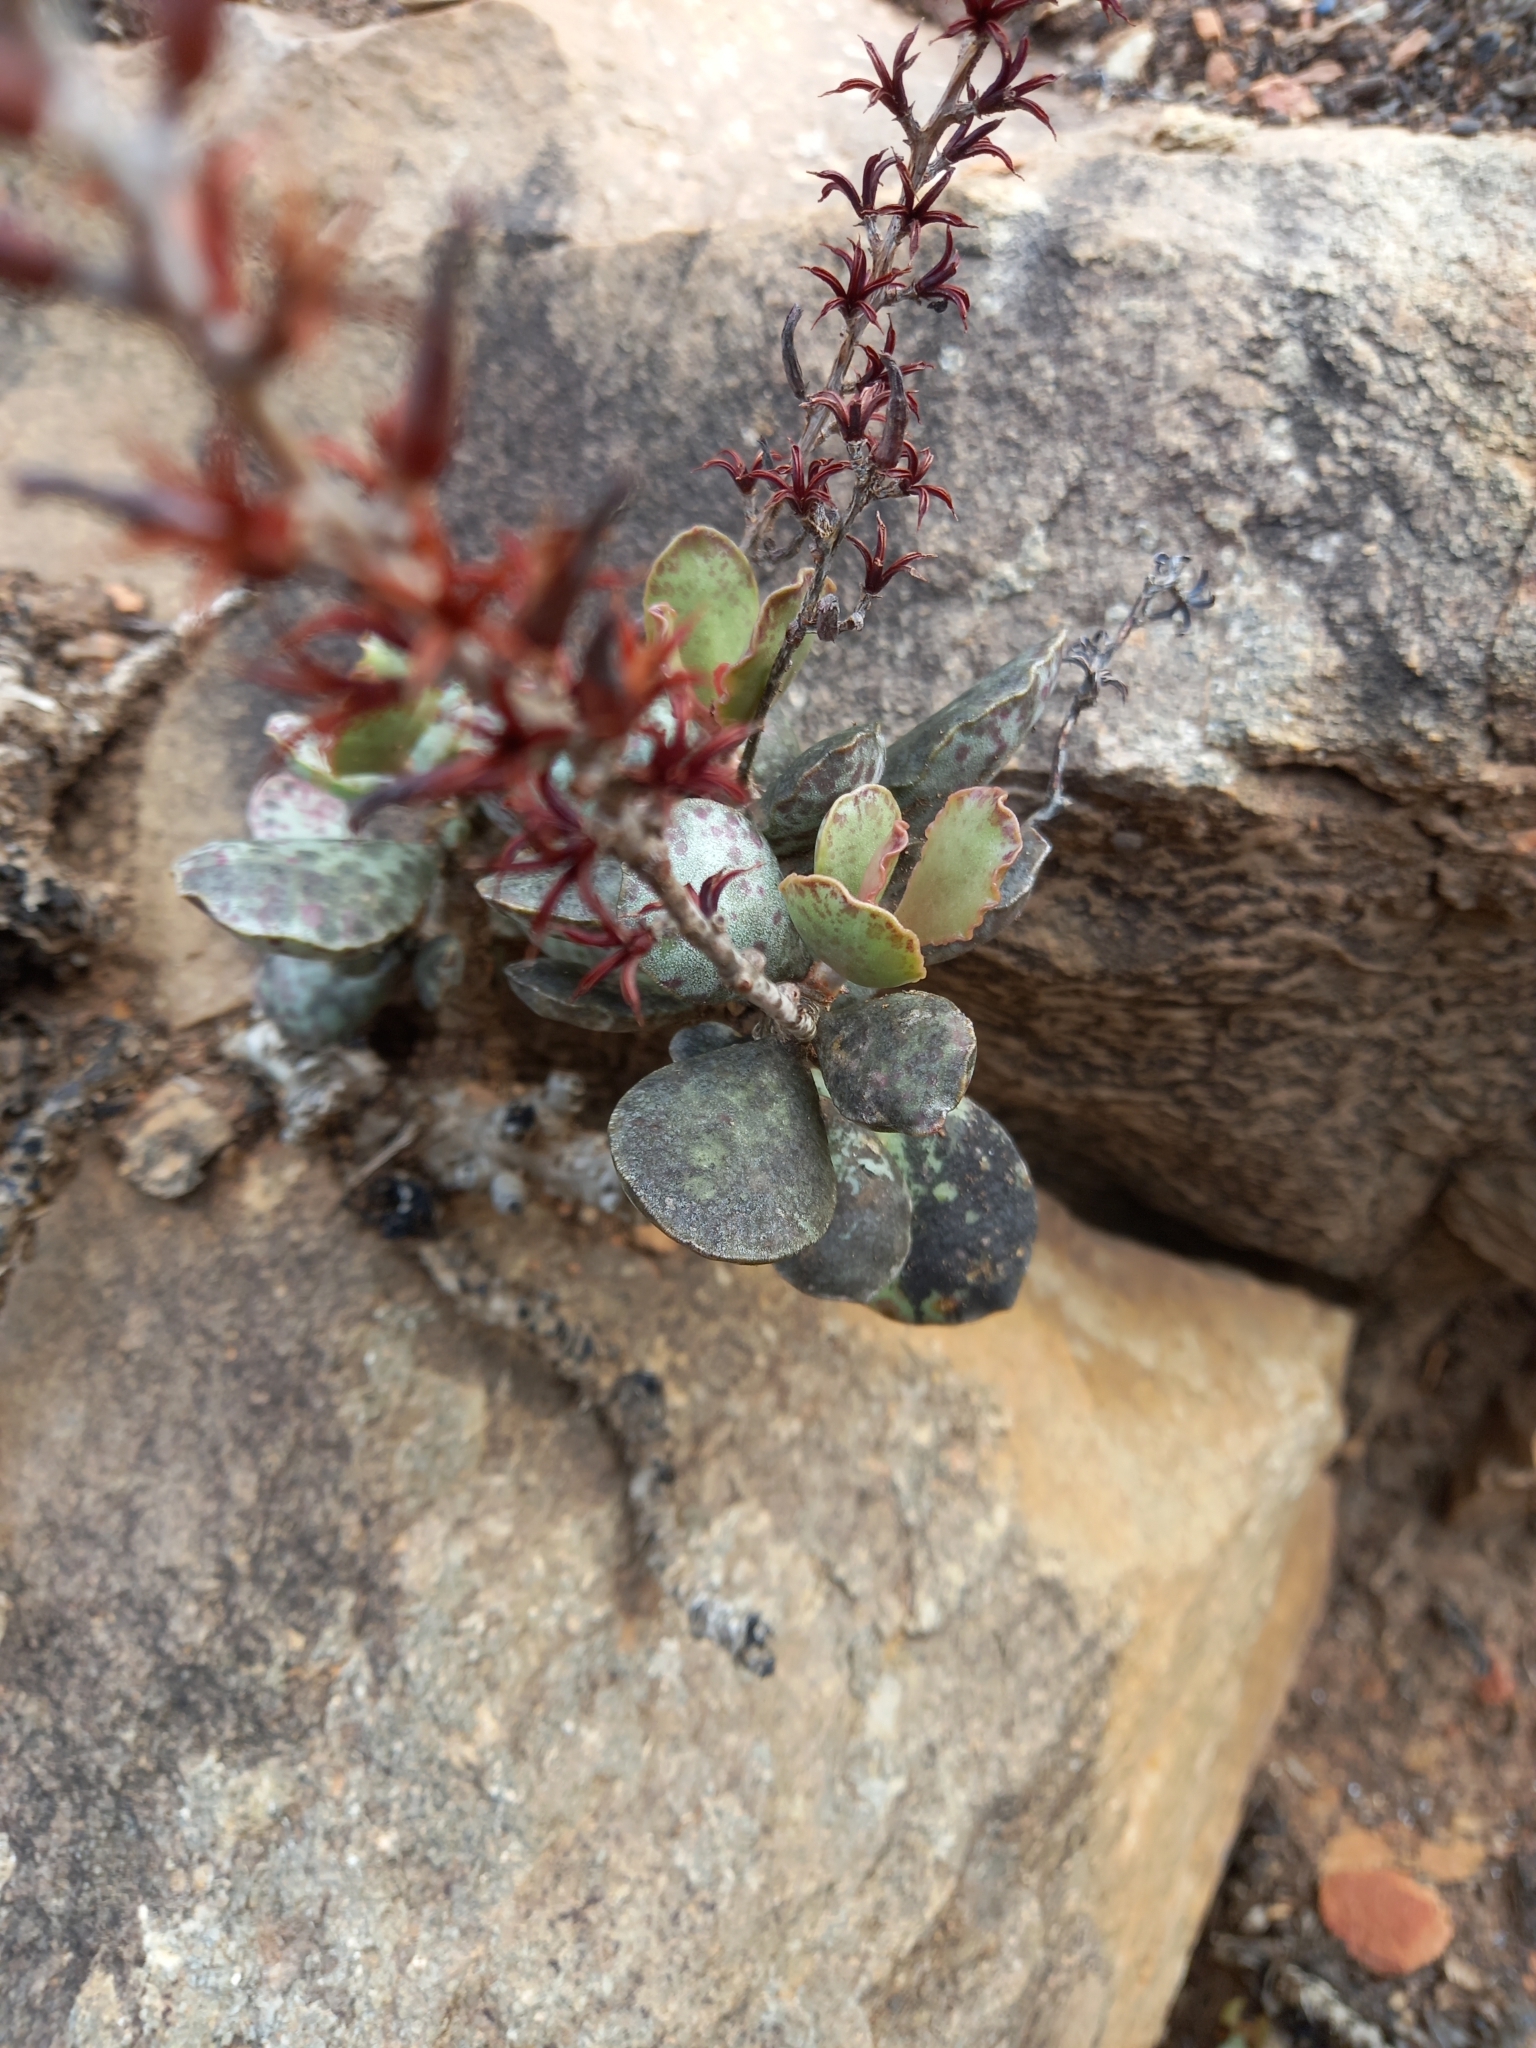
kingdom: Plantae
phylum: Tracheophyta
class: Magnoliopsida
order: Saxifragales
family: Crassulaceae
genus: Adromischus
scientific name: Adromischus maculatus
